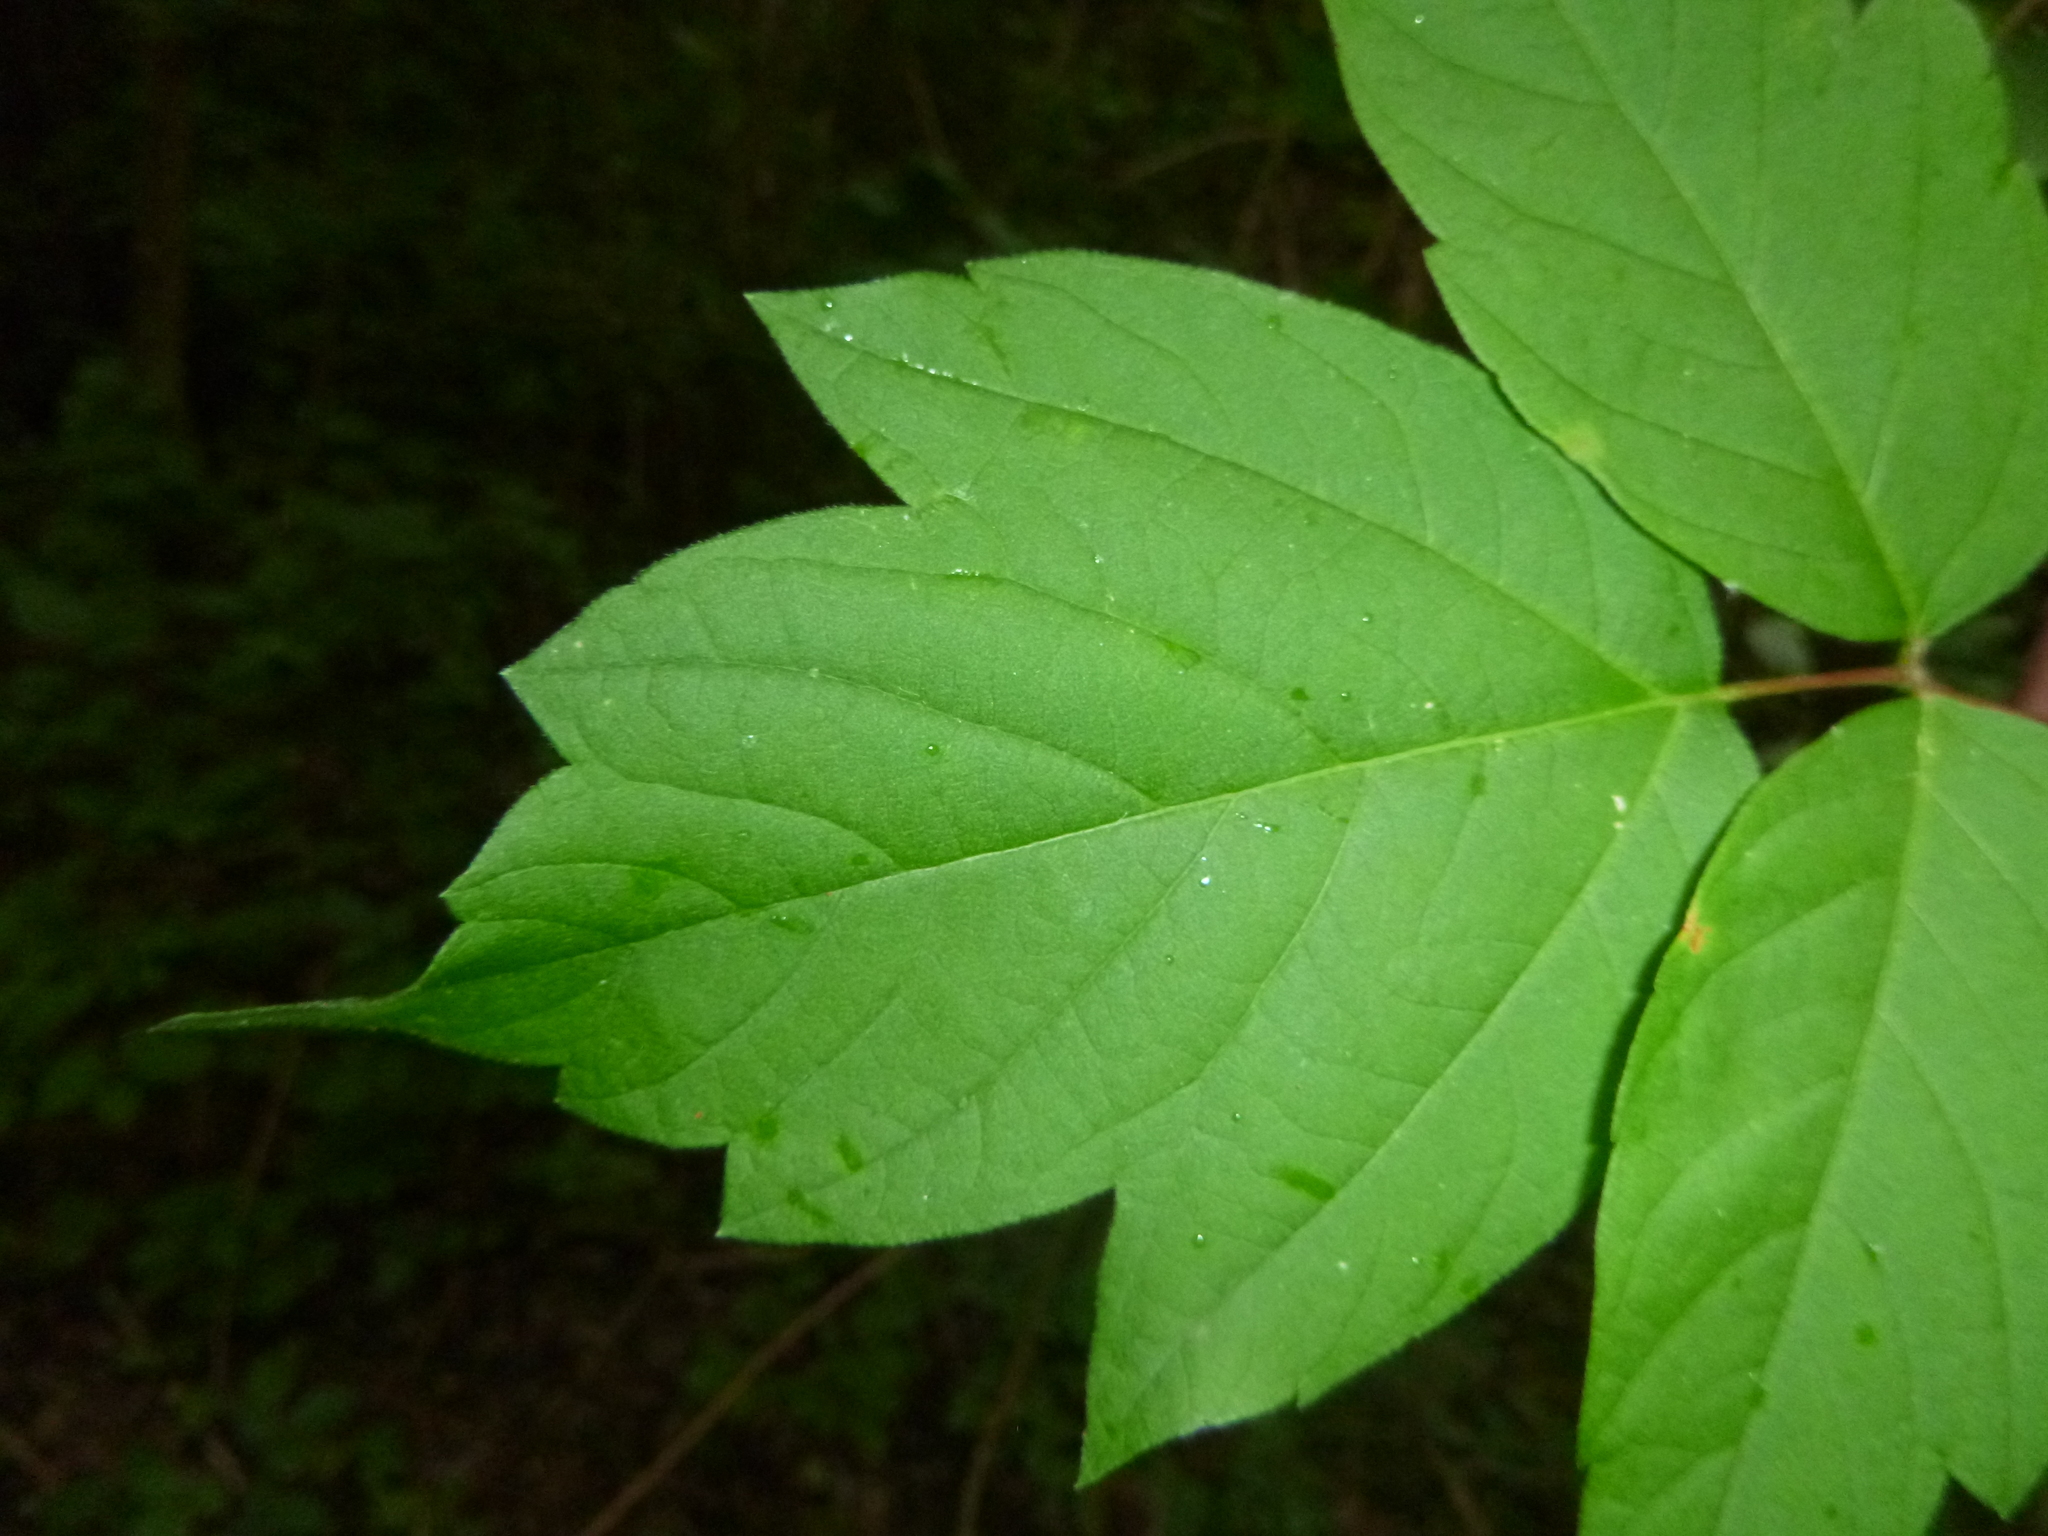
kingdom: Plantae
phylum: Tracheophyta
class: Magnoliopsida
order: Sapindales
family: Sapindaceae
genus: Acer
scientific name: Acer negundo
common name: Ashleaf maple
